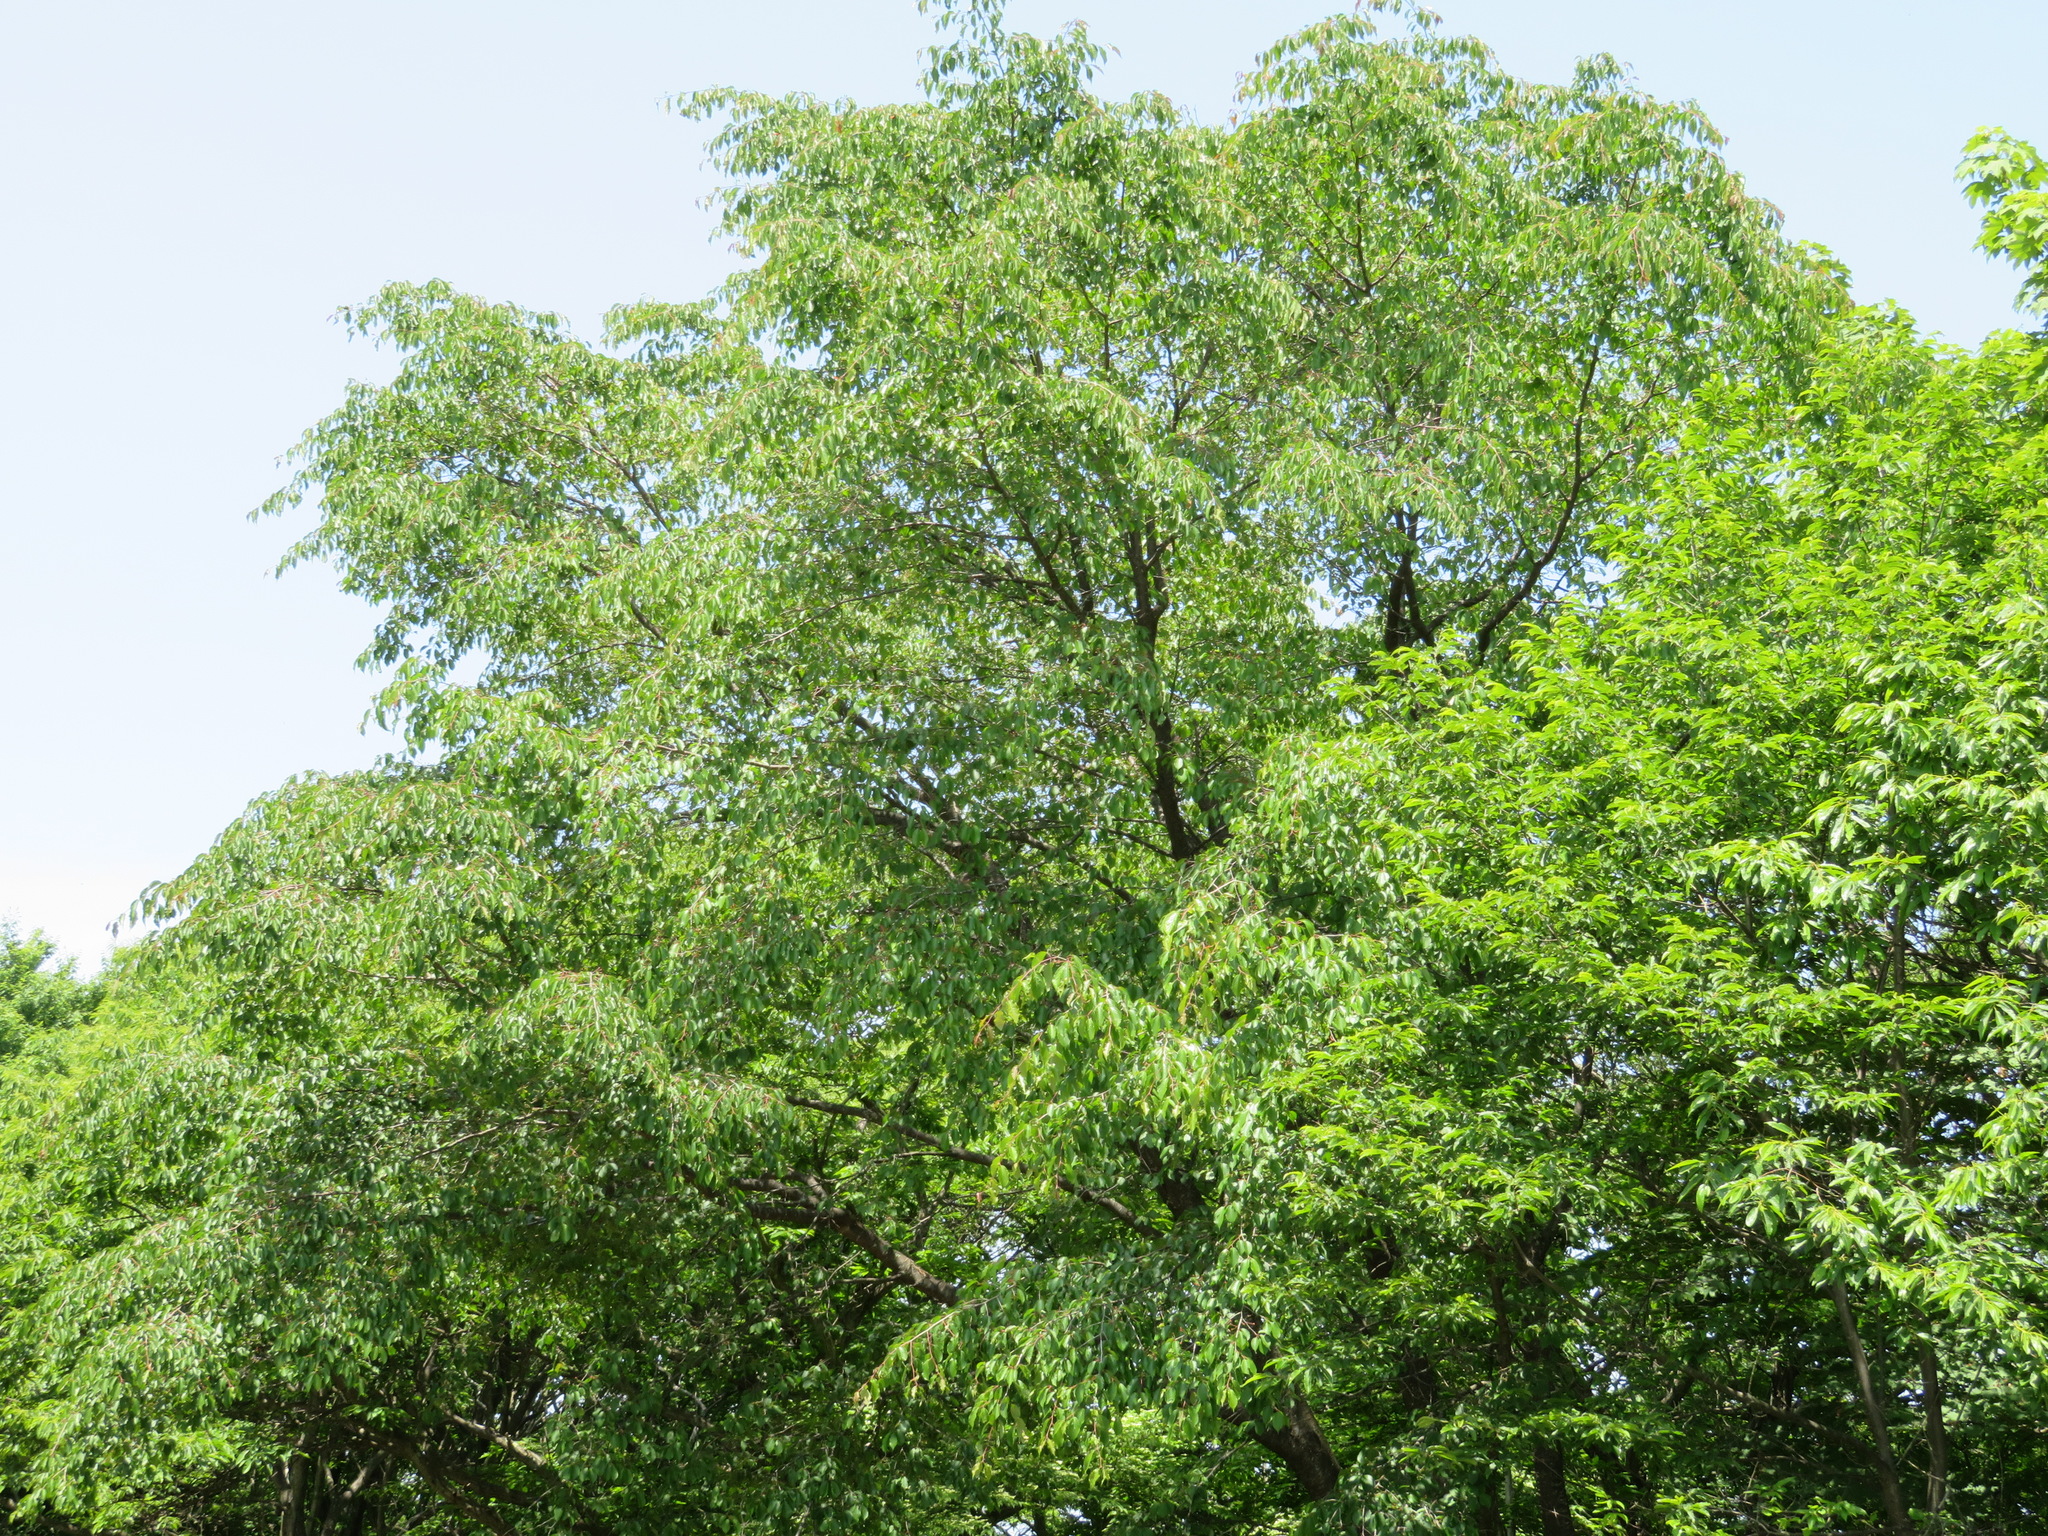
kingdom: Plantae
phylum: Tracheophyta
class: Magnoliopsida
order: Rosales
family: Rosaceae
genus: Prunus
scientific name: Prunus leveilleana
